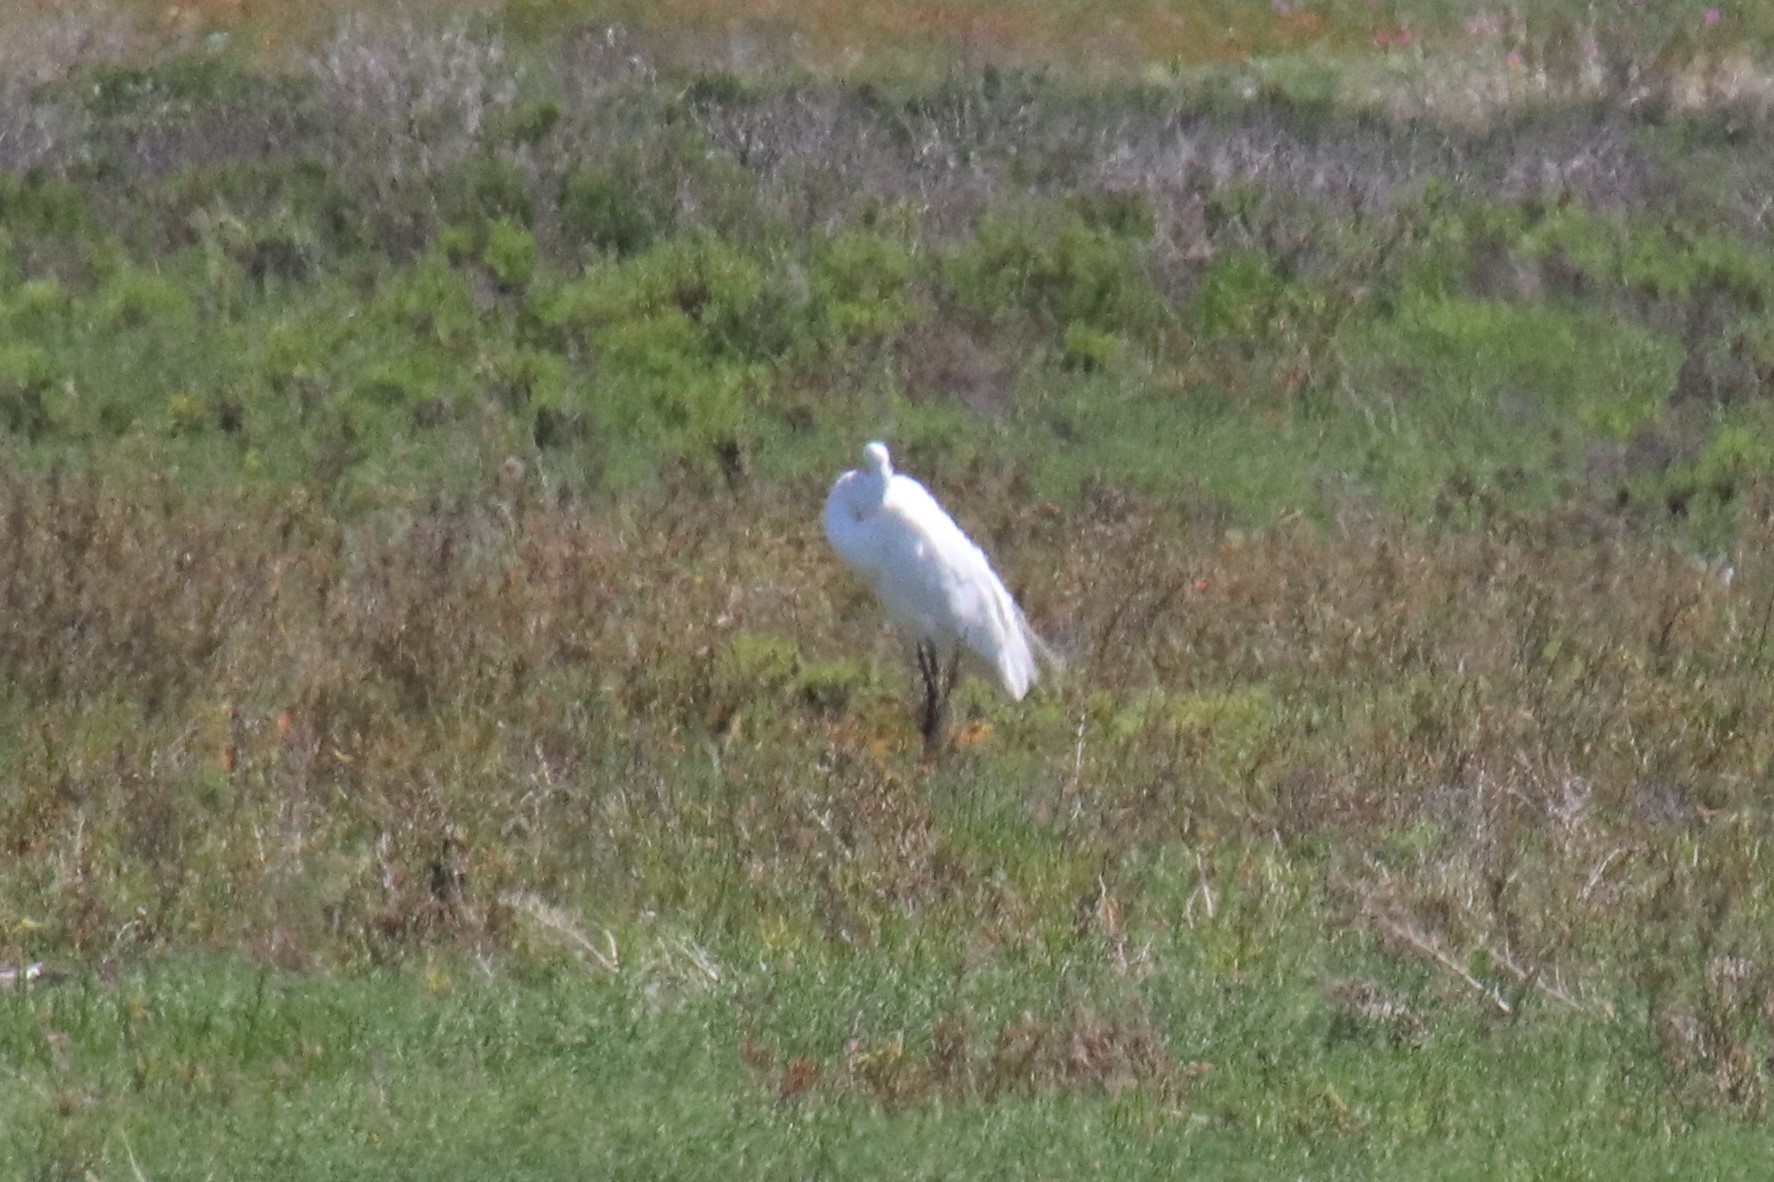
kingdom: Animalia
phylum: Chordata
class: Aves
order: Pelecaniformes
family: Ardeidae
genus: Ardea
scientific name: Ardea alba
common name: Great egret
